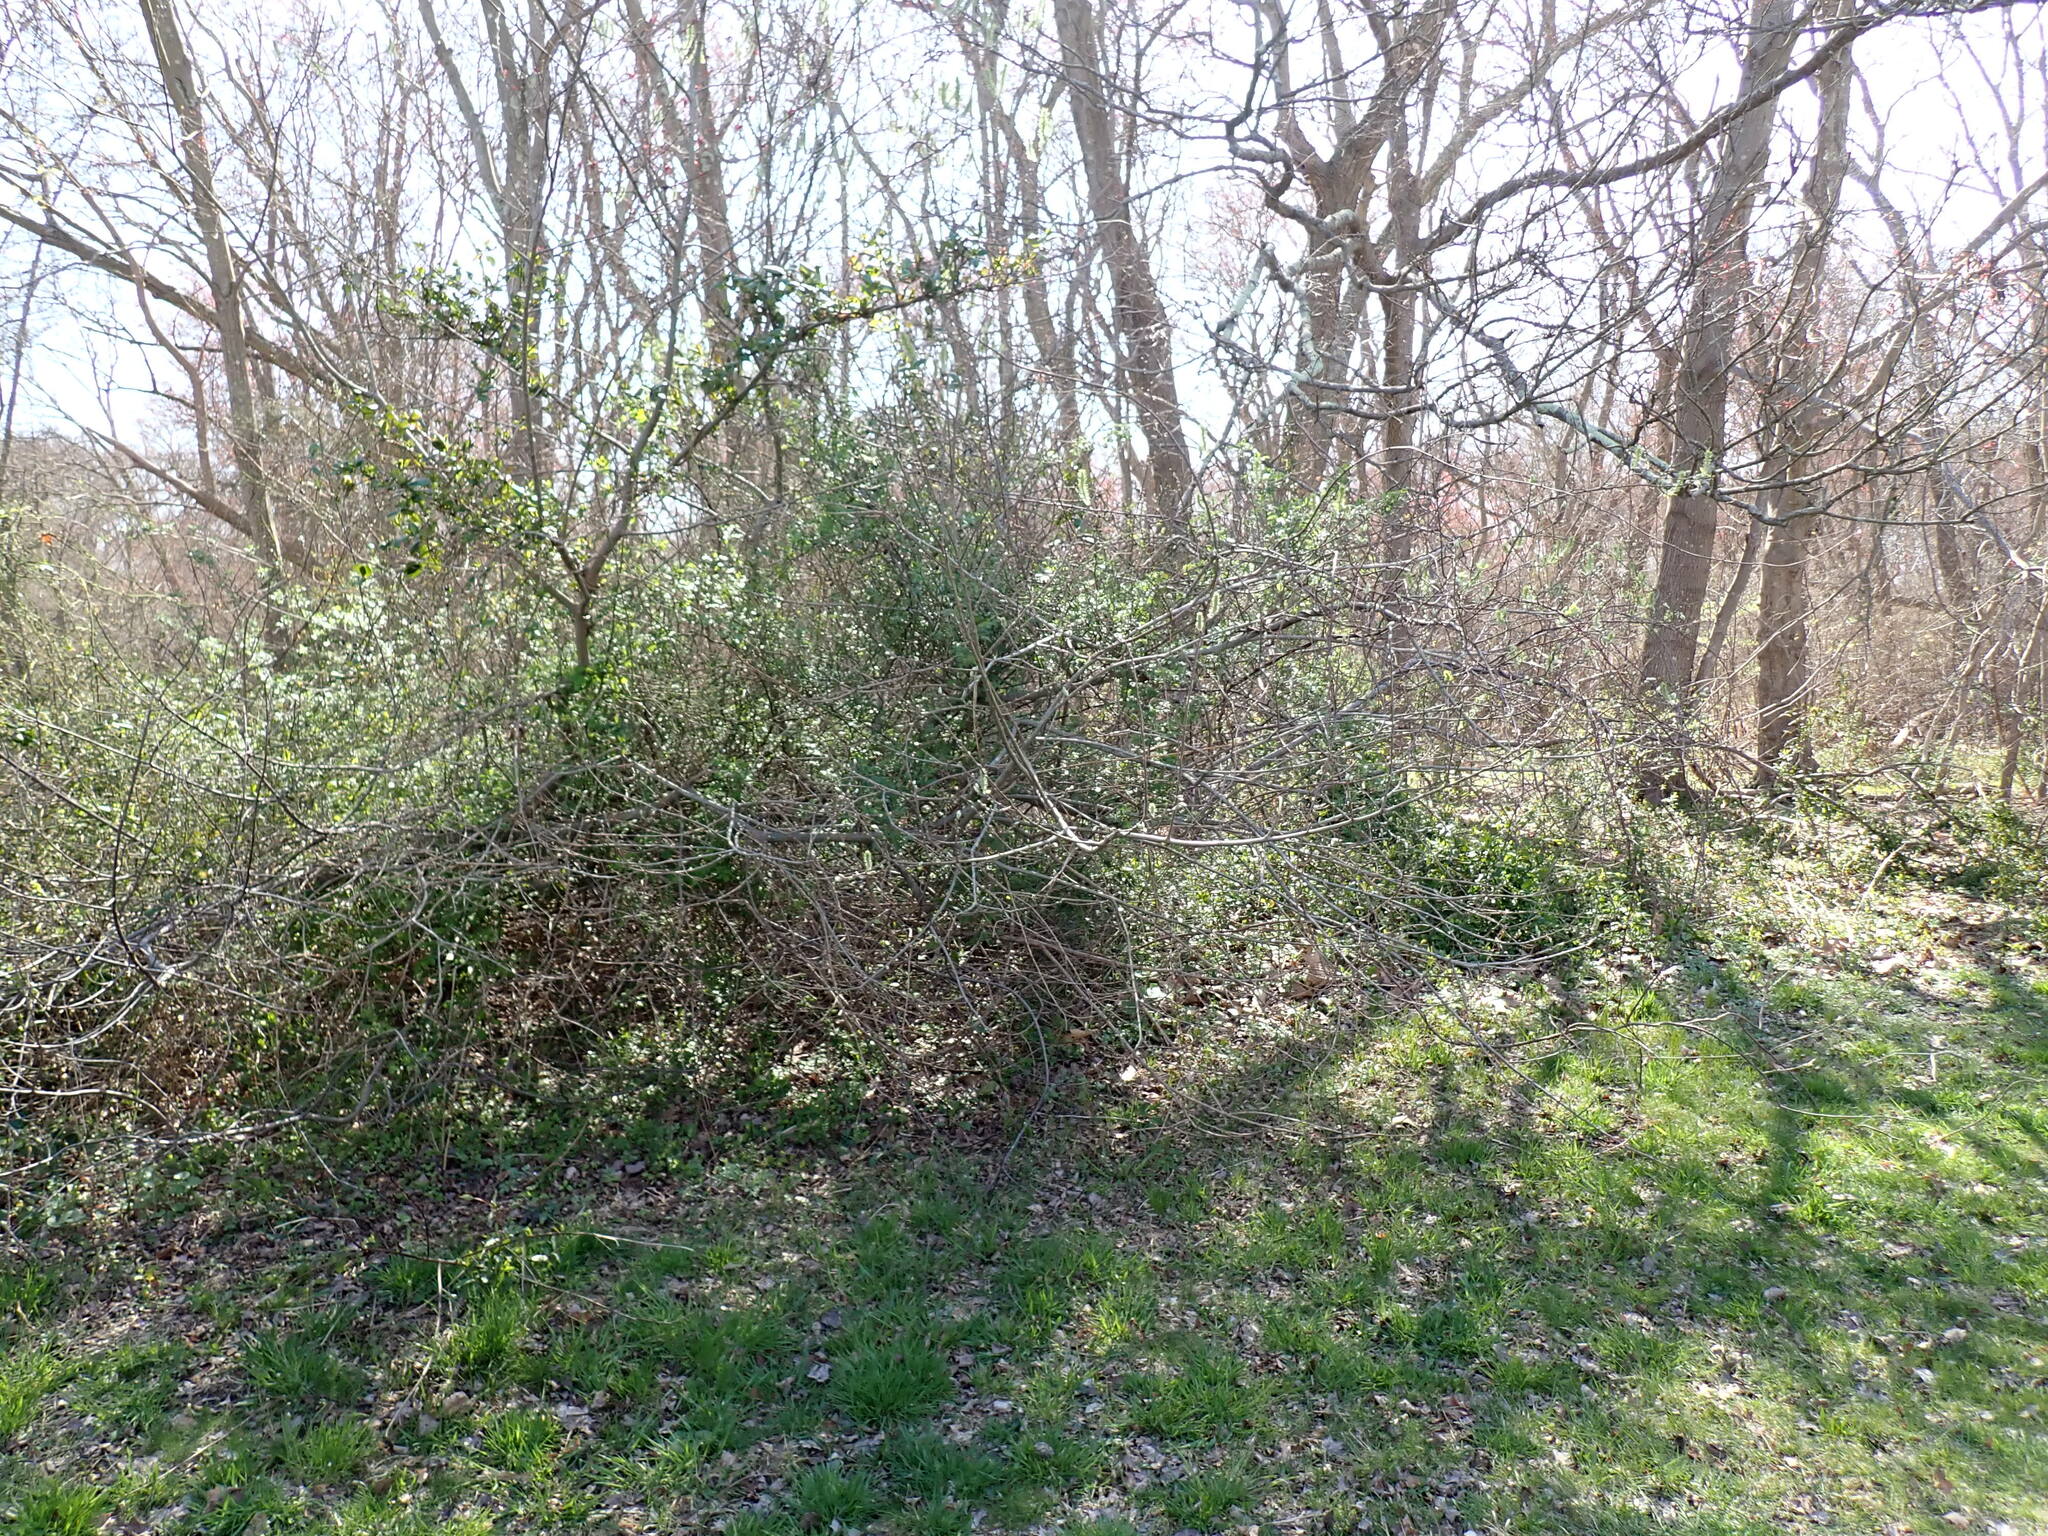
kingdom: Plantae
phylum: Tracheophyta
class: Magnoliopsida
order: Malpighiales
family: Salicaceae
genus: Salix
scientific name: Salix cinerea
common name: Common sallow
